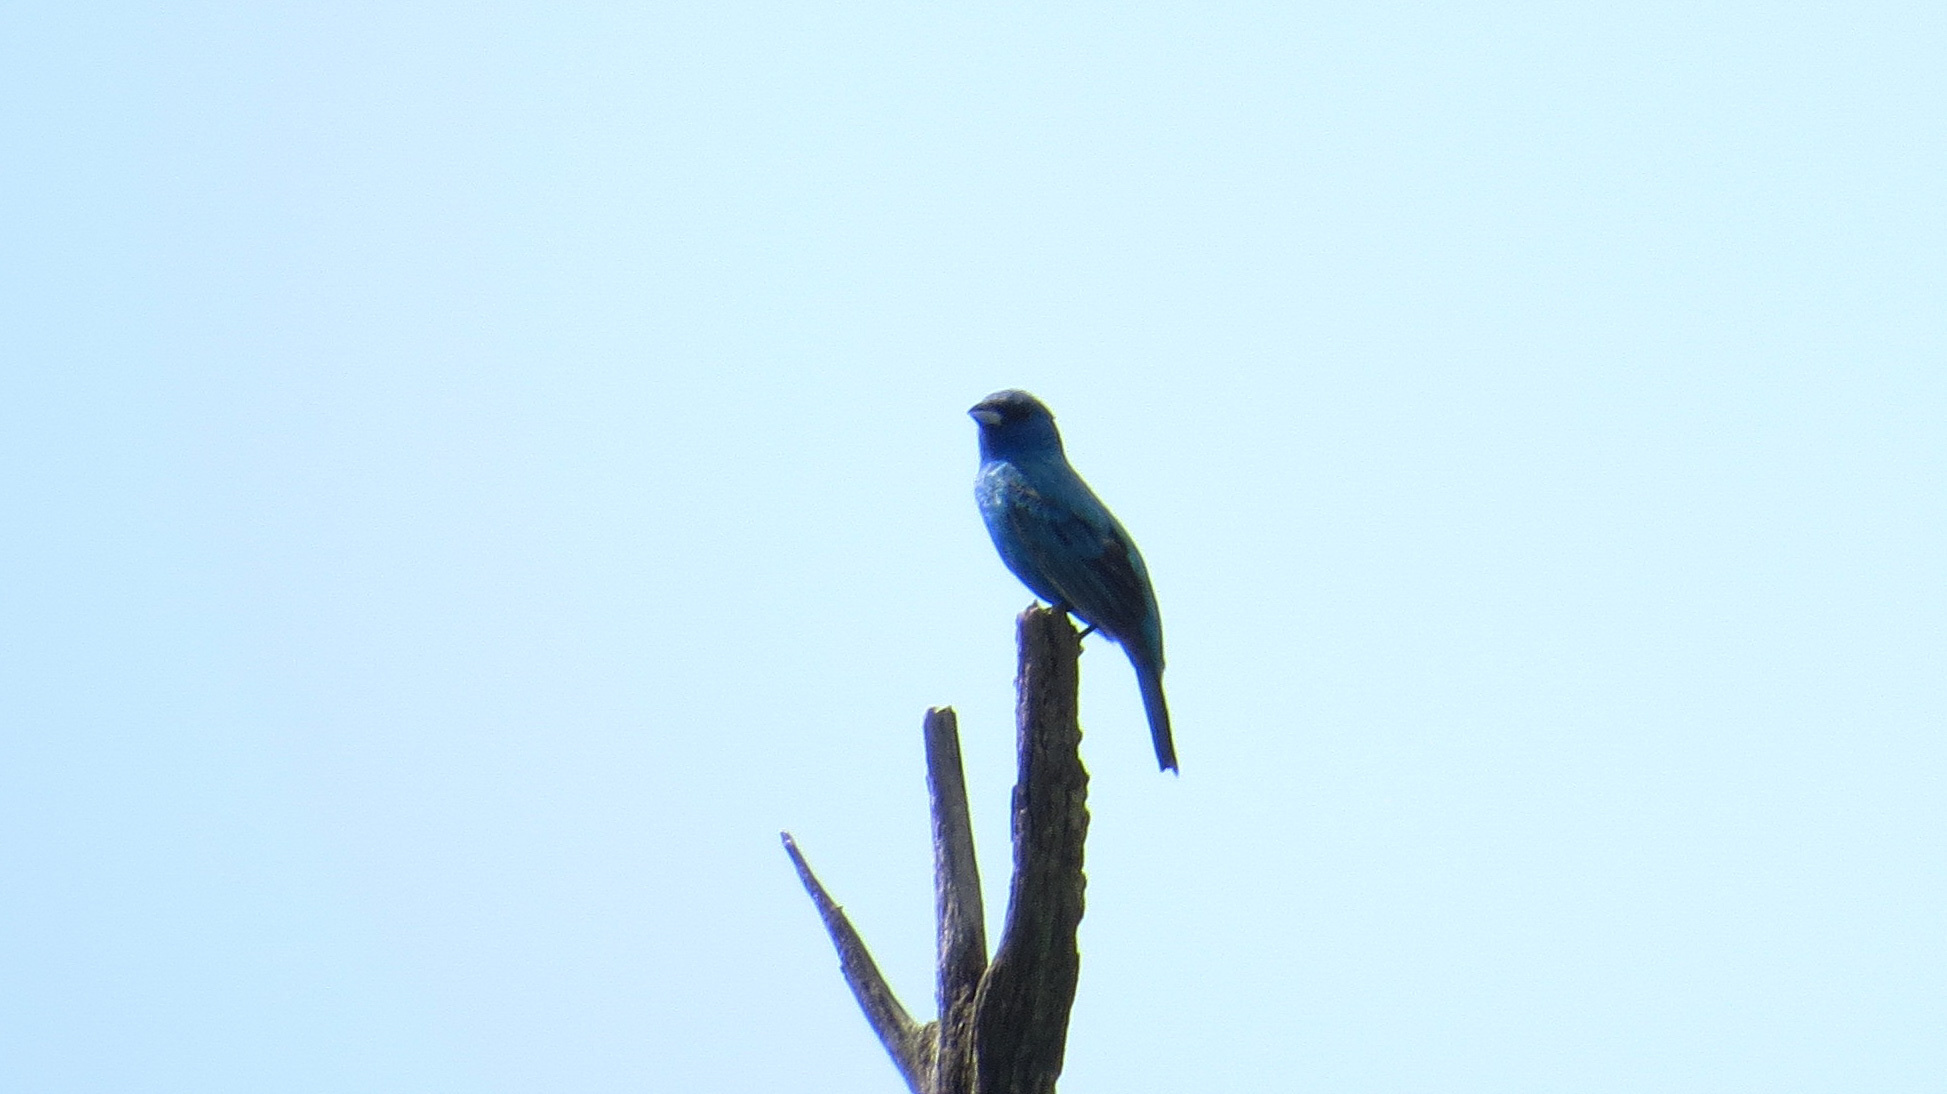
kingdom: Animalia
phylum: Chordata
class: Aves
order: Passeriformes
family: Cardinalidae
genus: Passerina
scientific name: Passerina cyanea
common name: Indigo bunting
